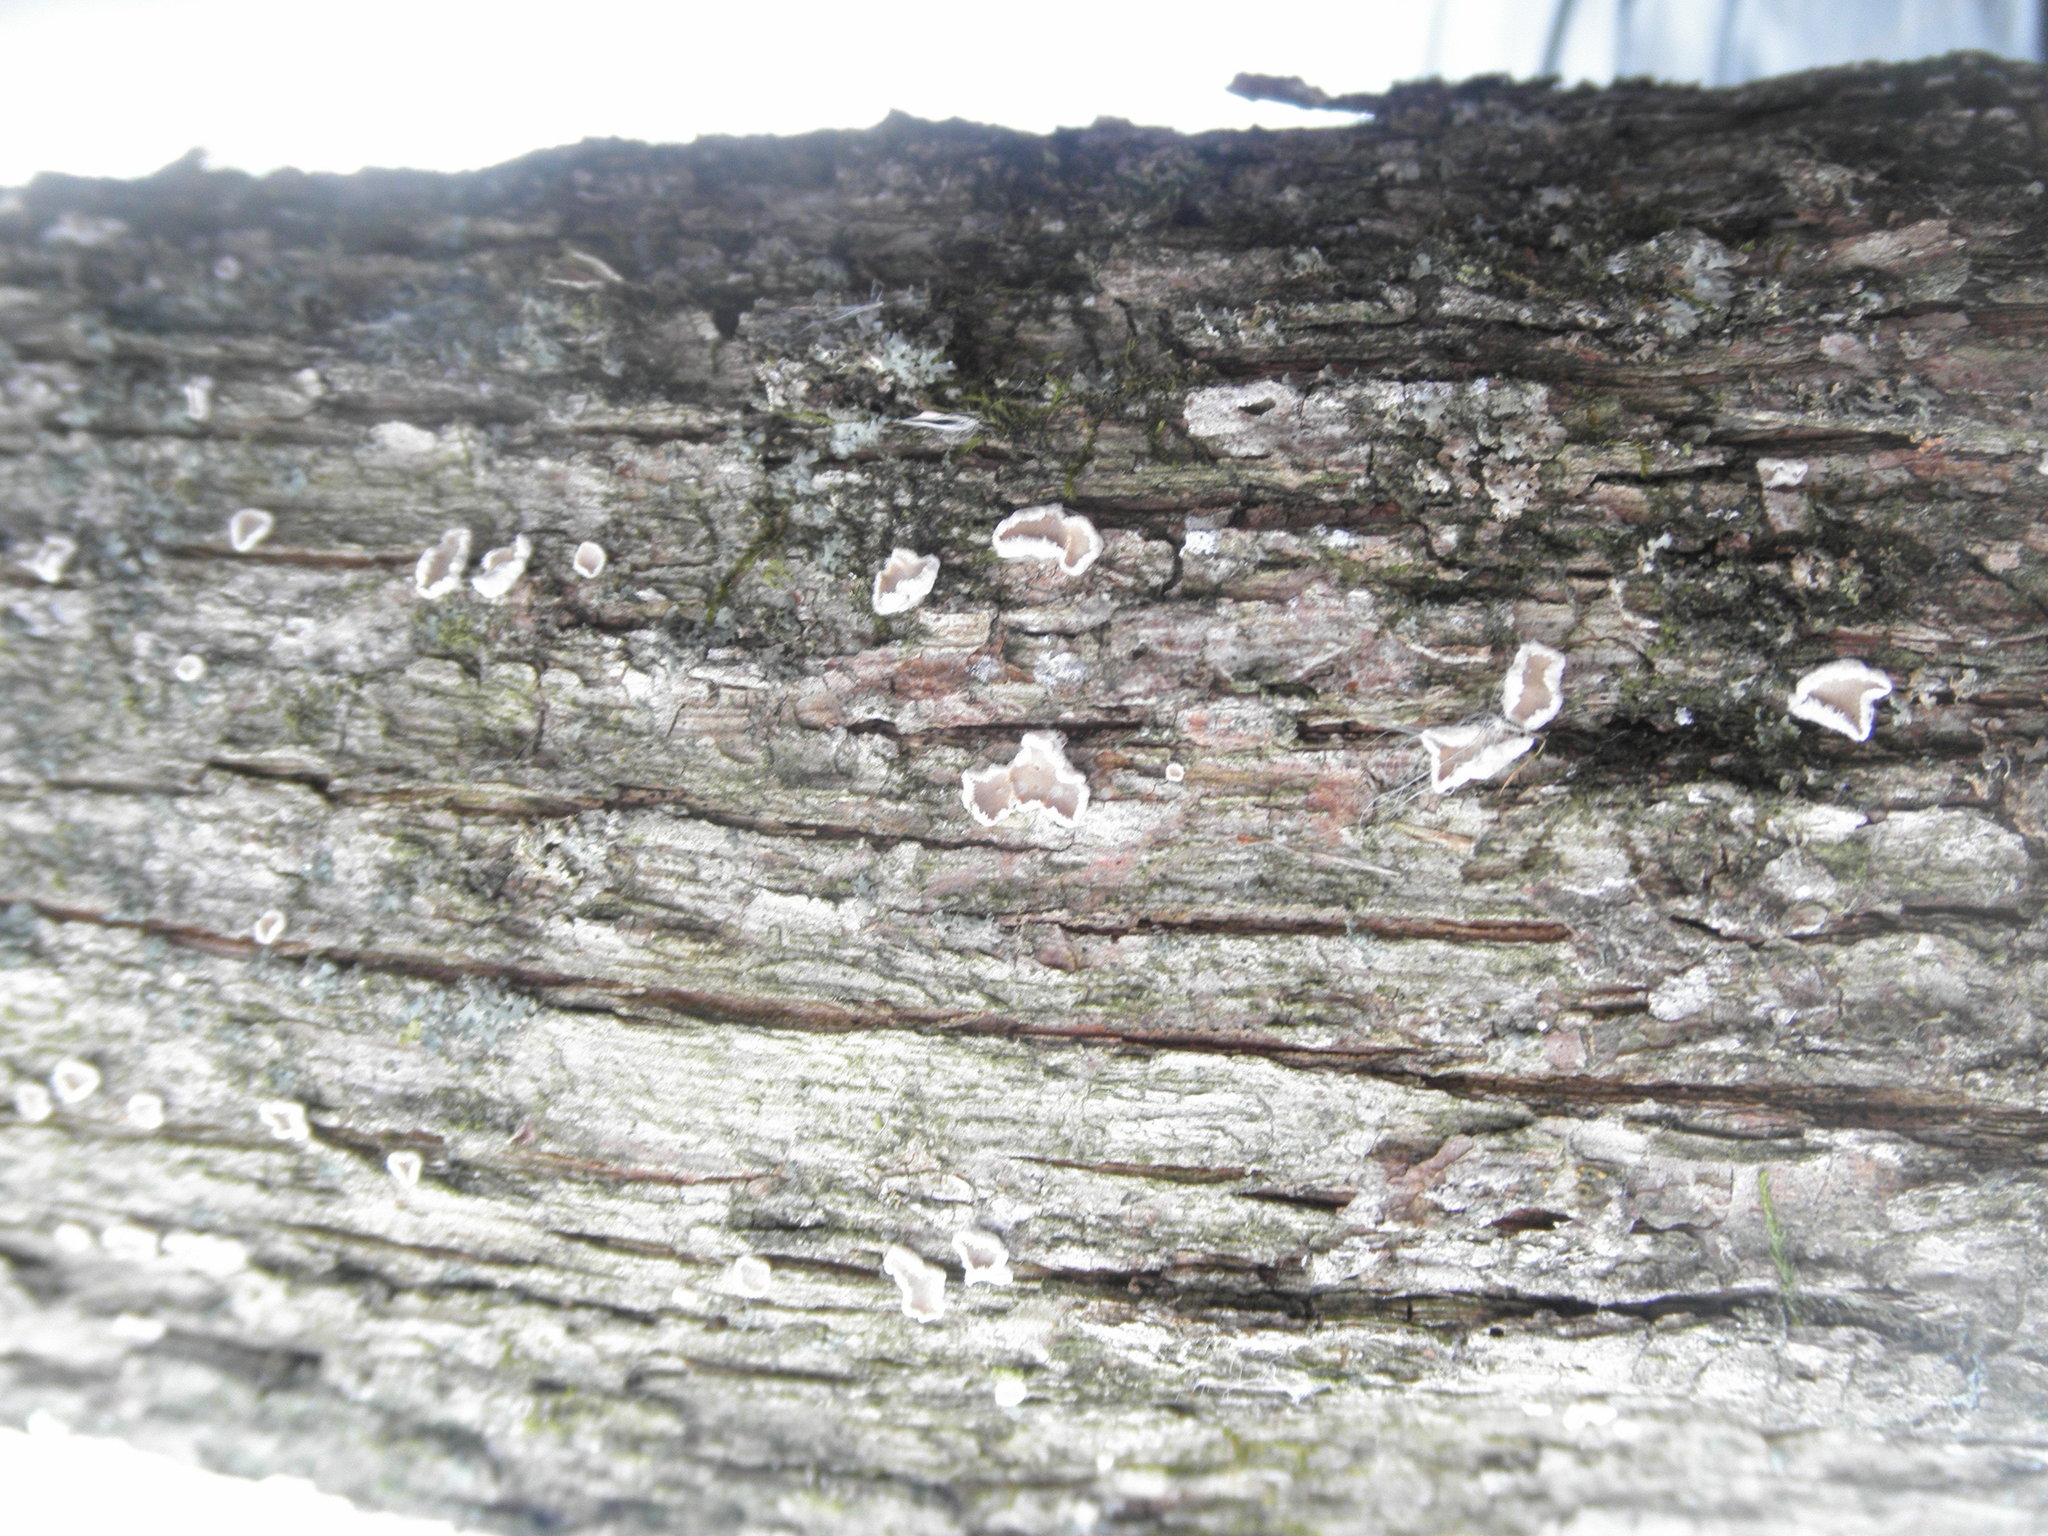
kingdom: Fungi
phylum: Basidiomycota
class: Agaricomycetes
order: Russulales
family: Stereaceae
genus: Acanthophysium
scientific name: Acanthophysium oakesii
